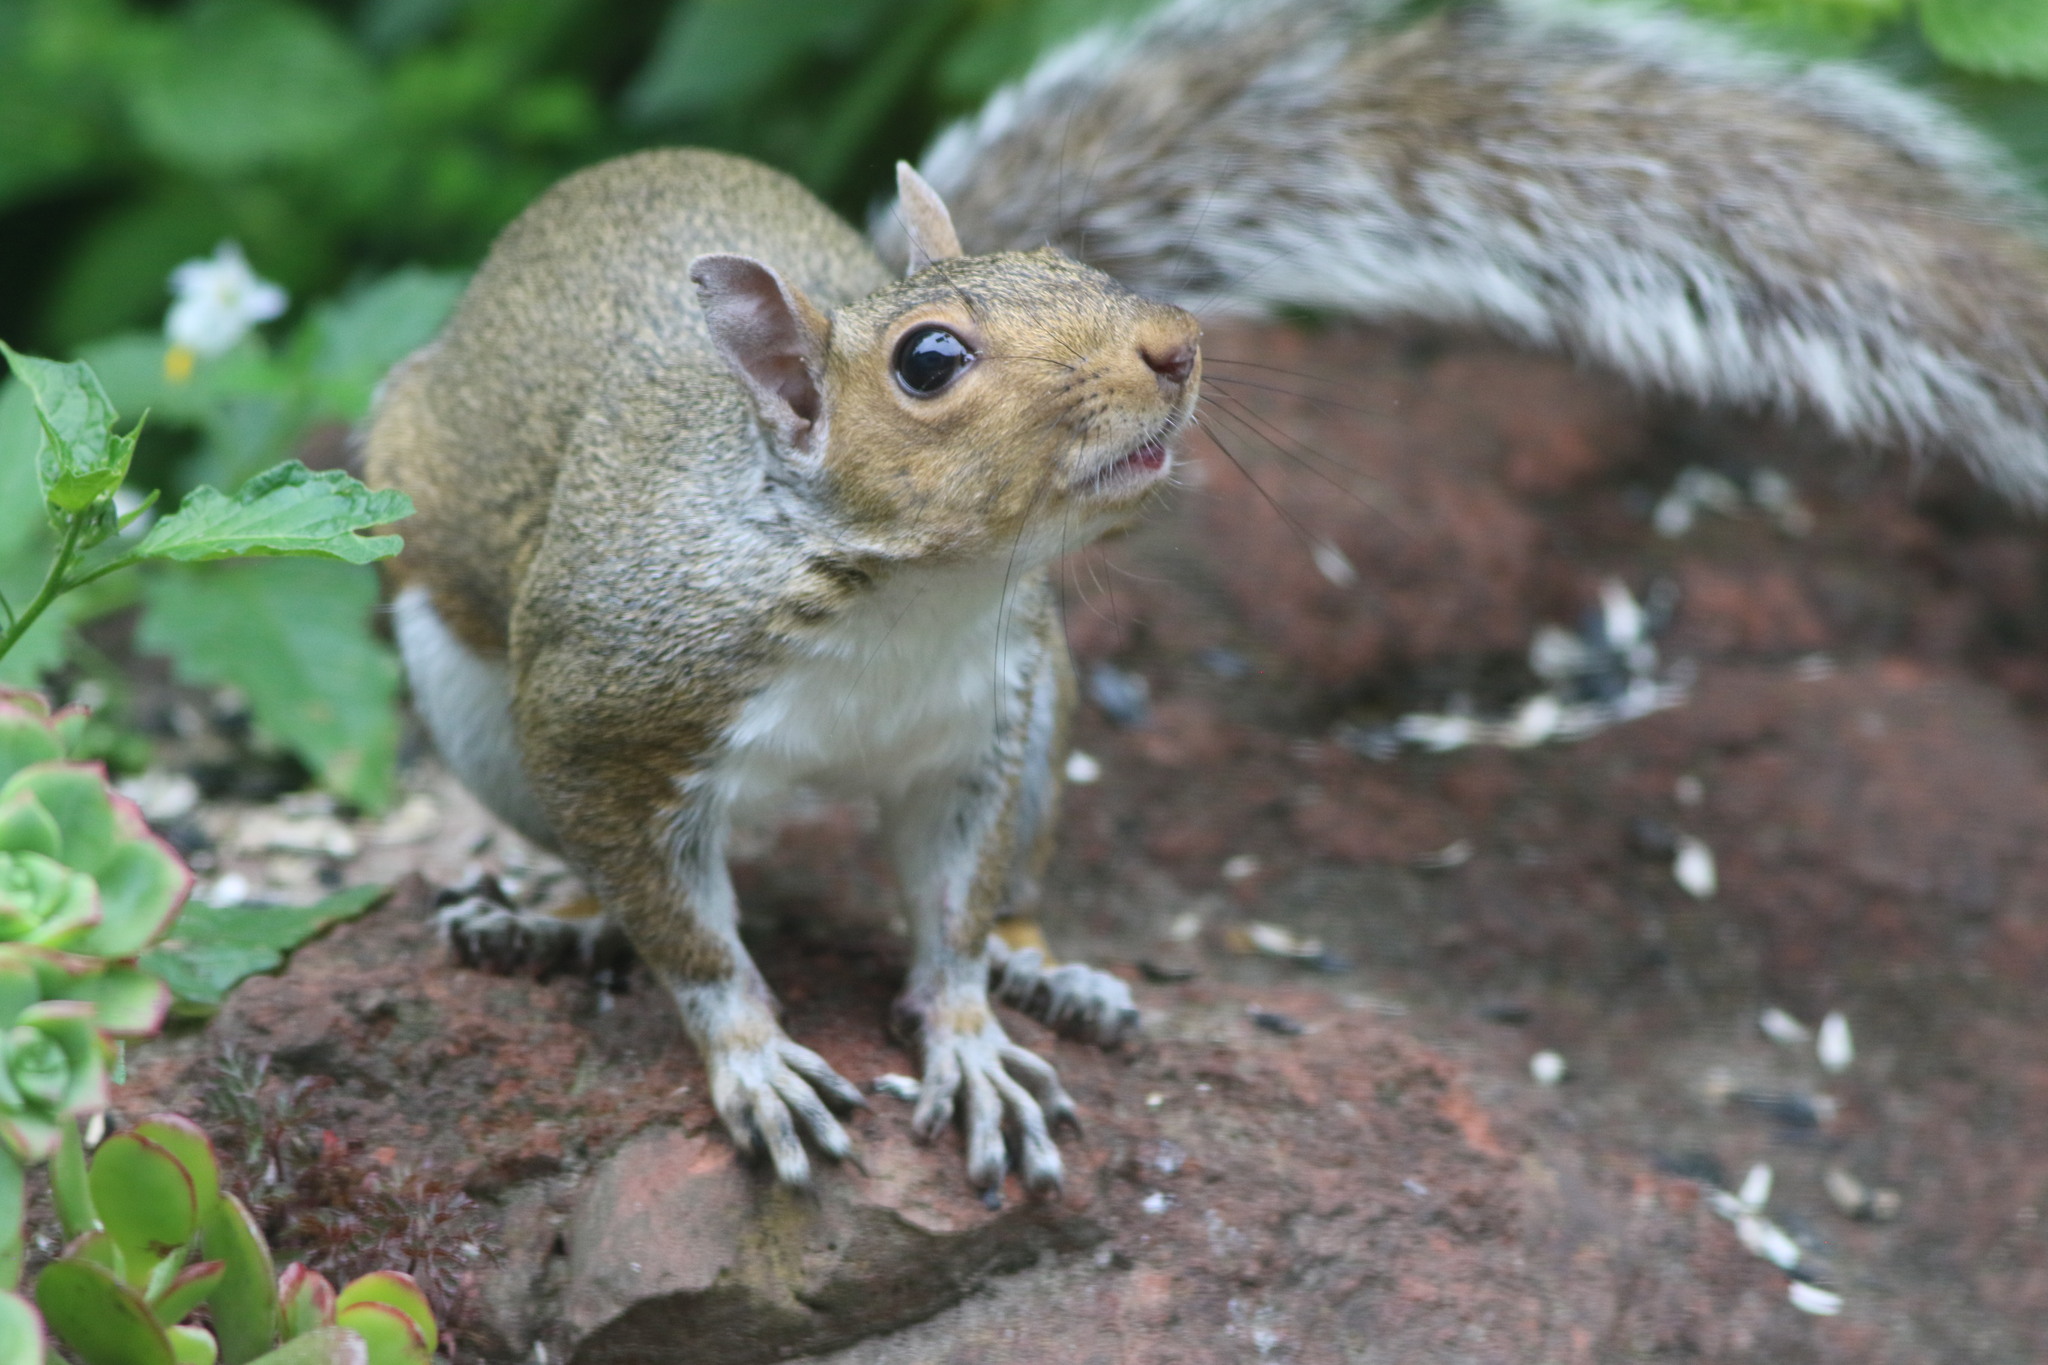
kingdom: Animalia
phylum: Chordata
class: Mammalia
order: Rodentia
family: Sciuridae
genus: Sciurus
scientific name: Sciurus carolinensis
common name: Eastern gray squirrel
